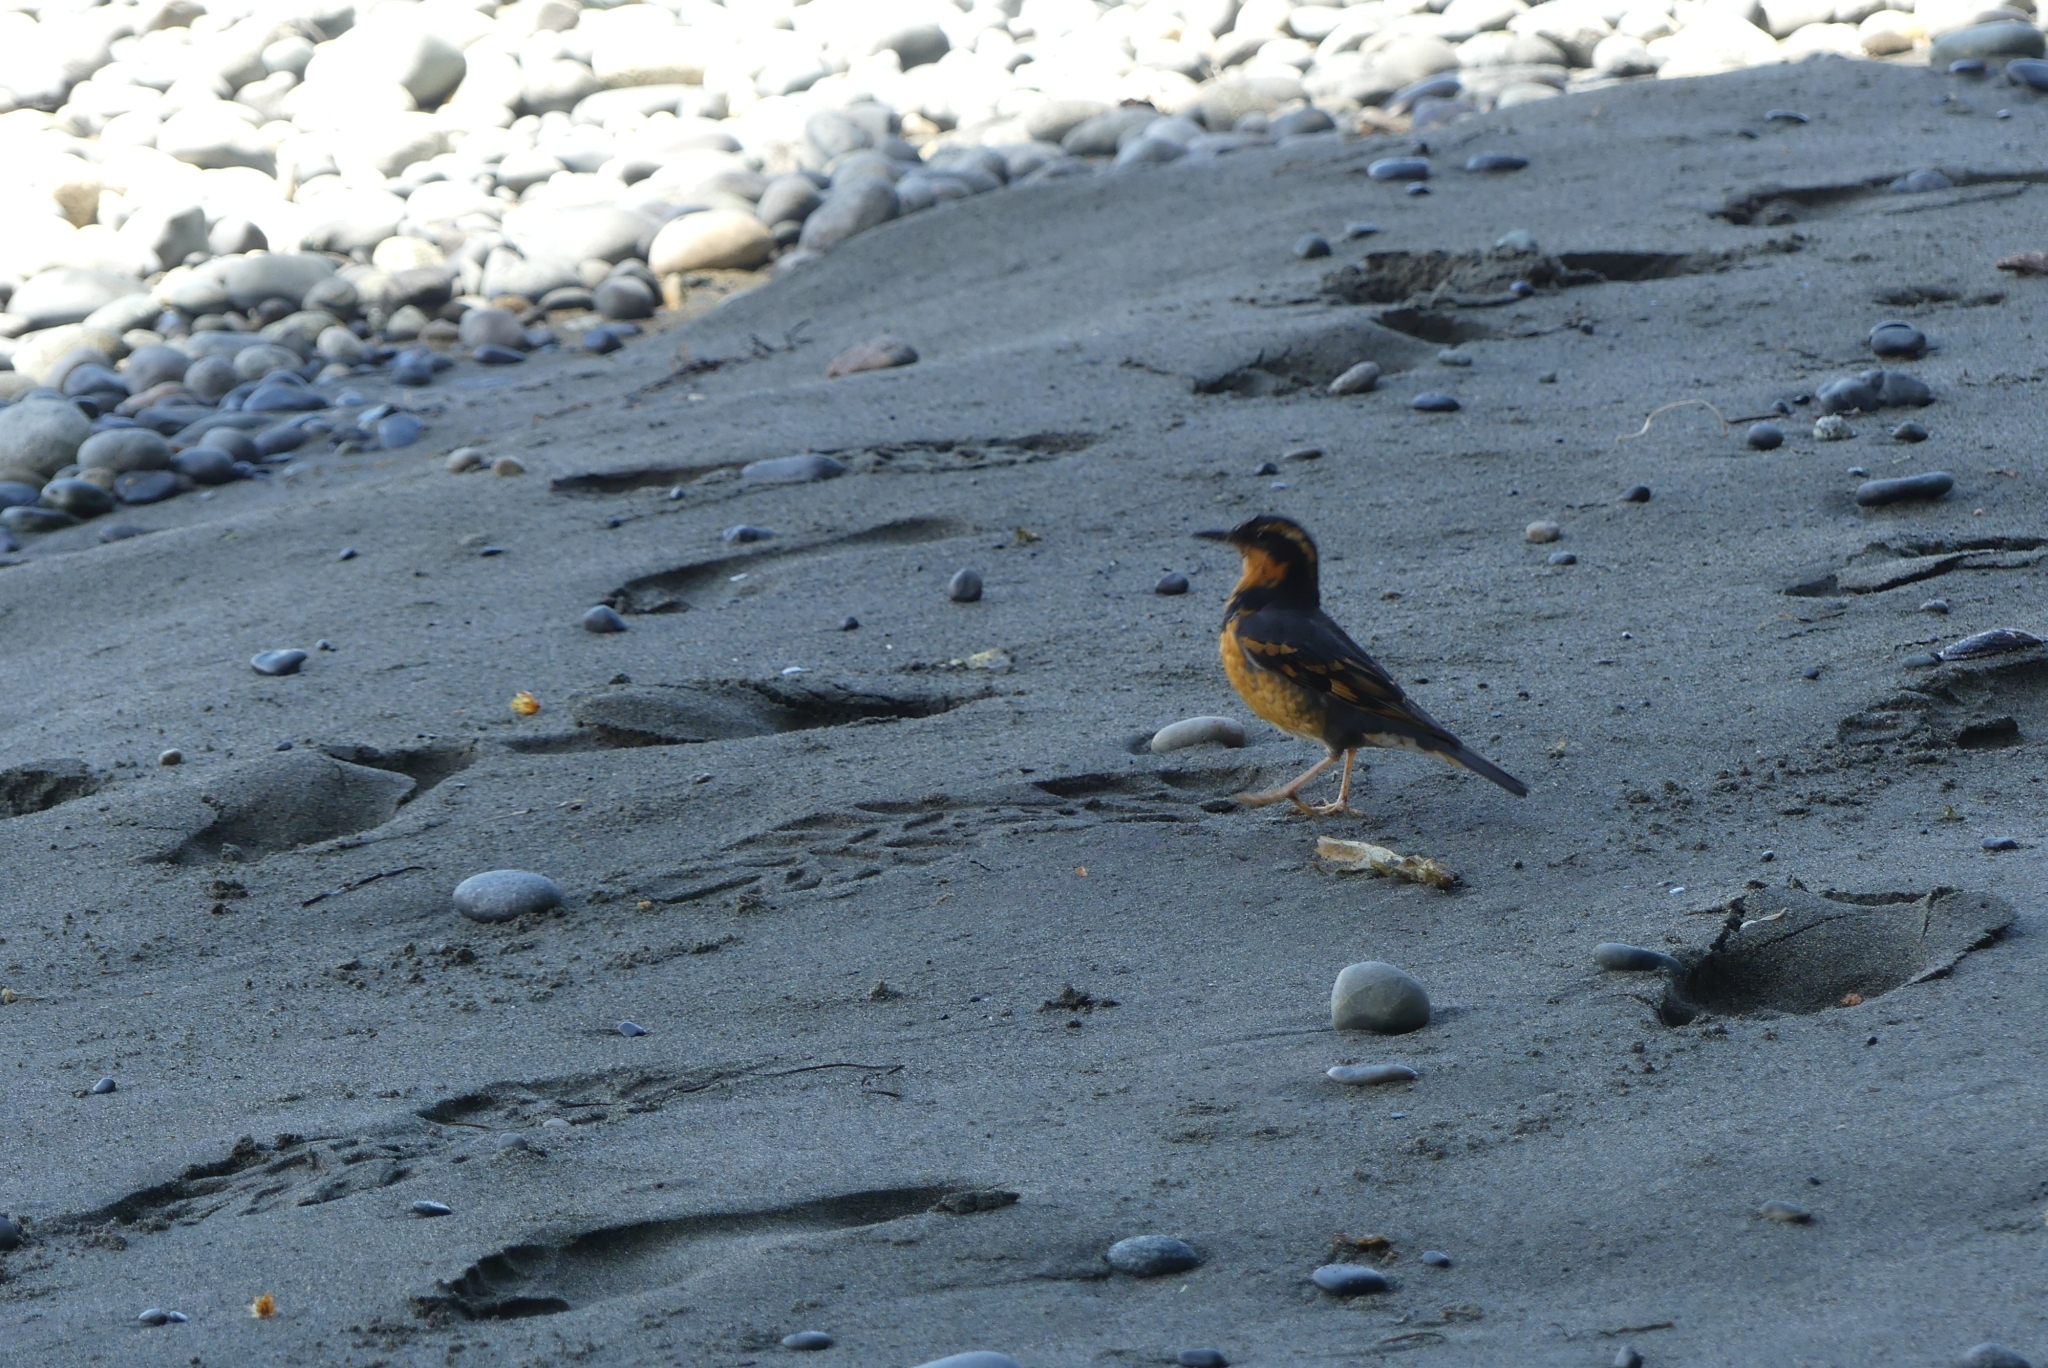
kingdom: Animalia
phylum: Chordata
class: Aves
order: Passeriformes
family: Turdidae
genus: Ixoreus
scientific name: Ixoreus naevius
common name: Varied thrush
